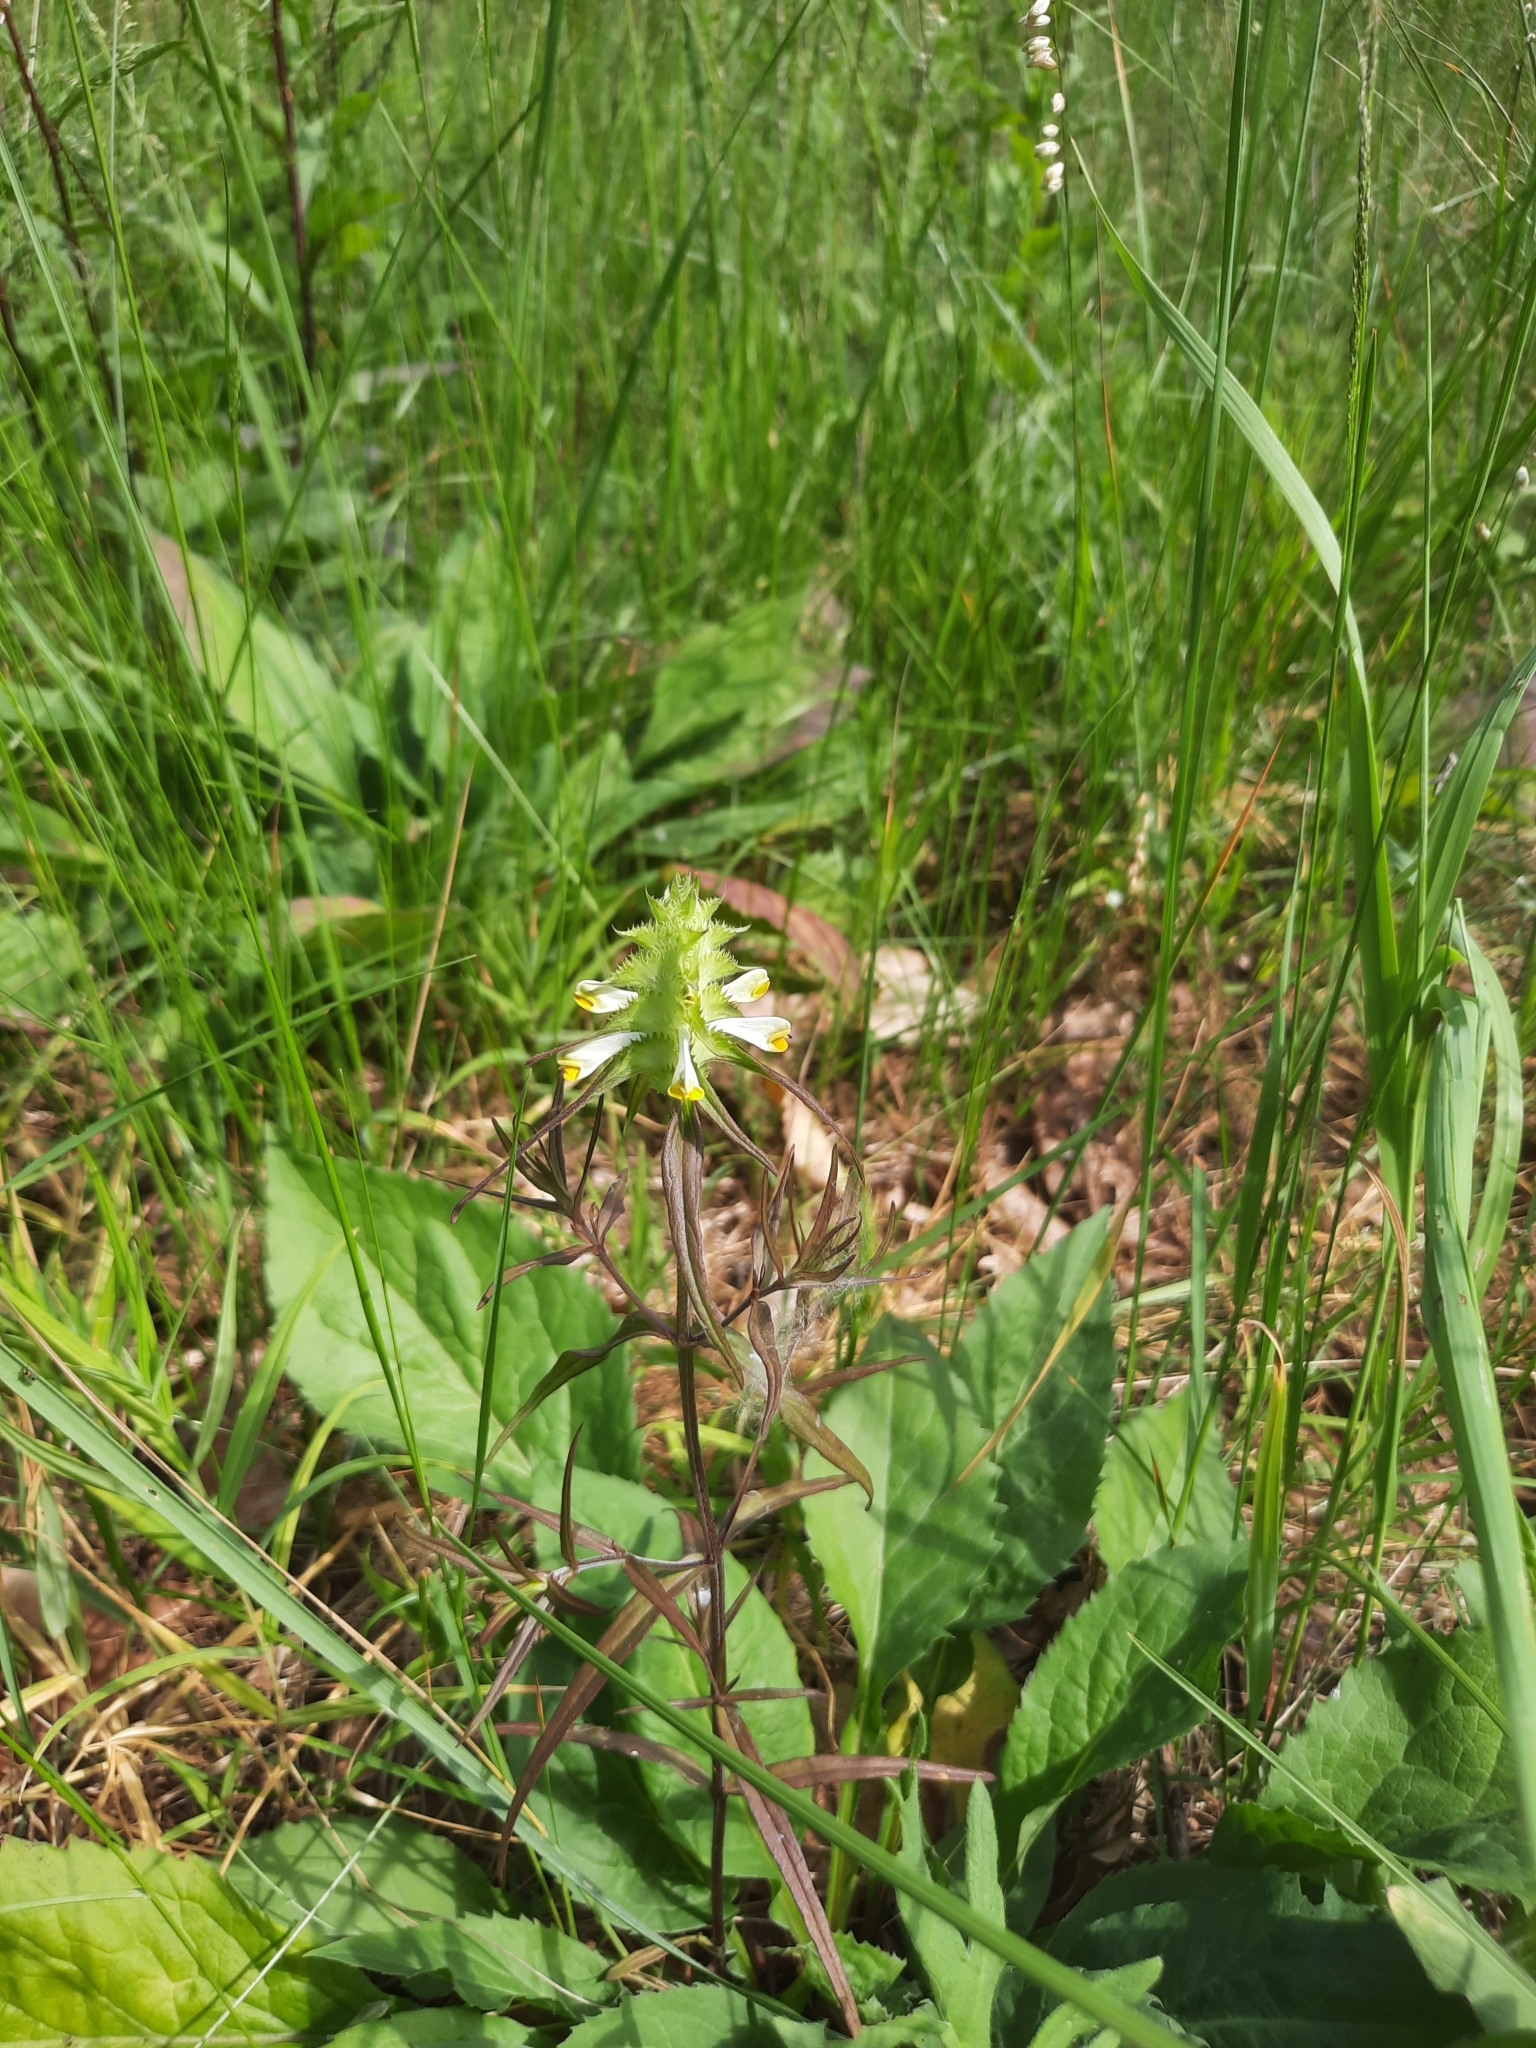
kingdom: Plantae
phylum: Tracheophyta
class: Magnoliopsida
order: Lamiales
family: Orobanchaceae
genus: Melampyrum
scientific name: Melampyrum cristatum
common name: Crested cow-wheat
